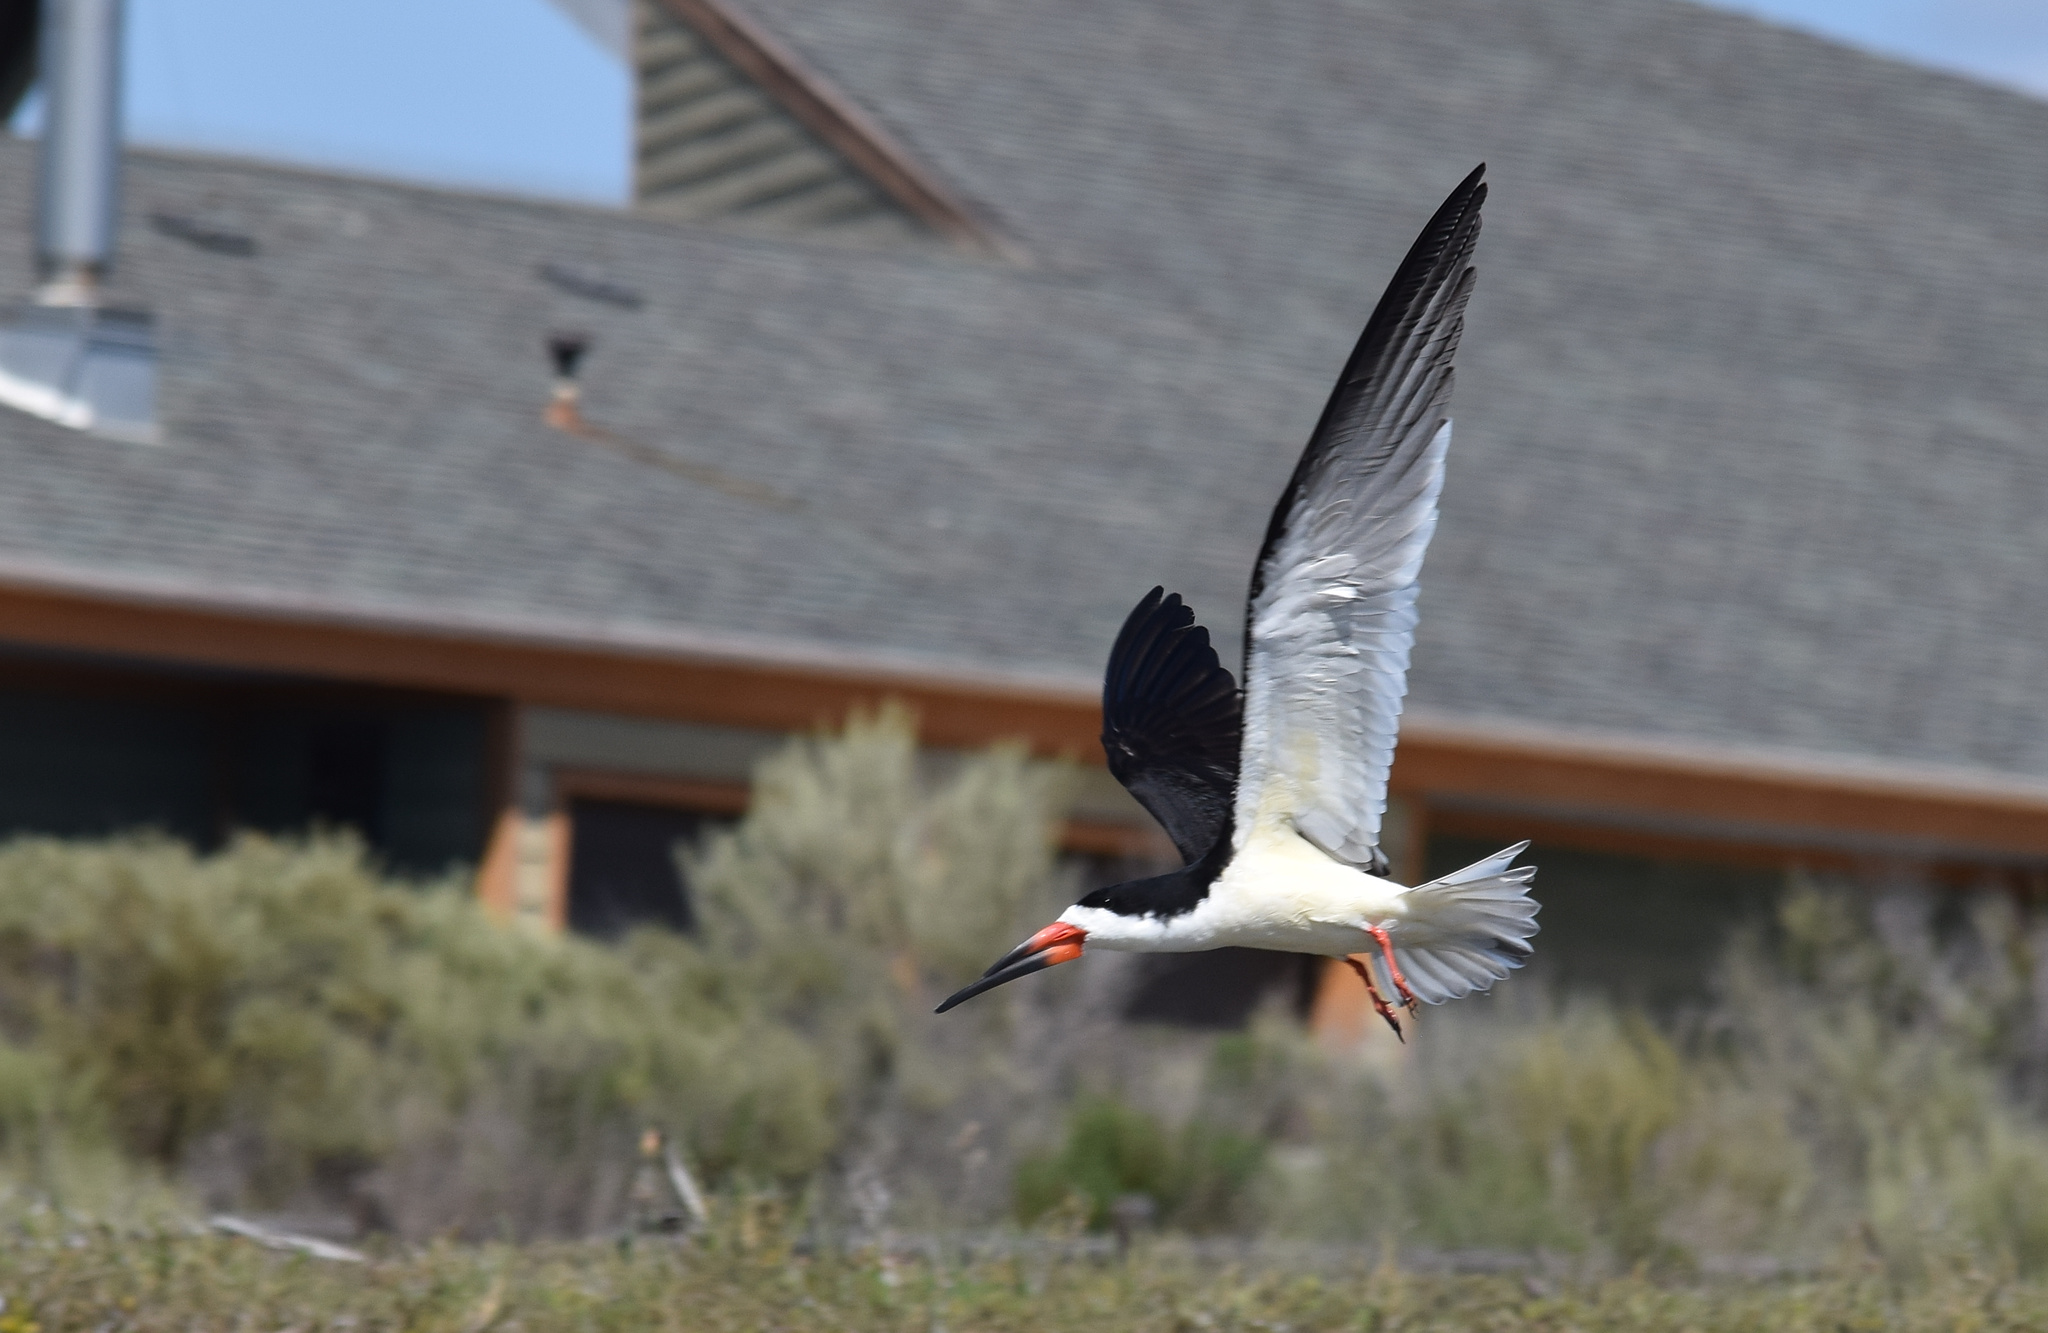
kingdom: Animalia
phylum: Chordata
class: Aves
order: Charadriiformes
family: Laridae
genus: Rynchops
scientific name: Rynchops niger
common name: Black skimmer
